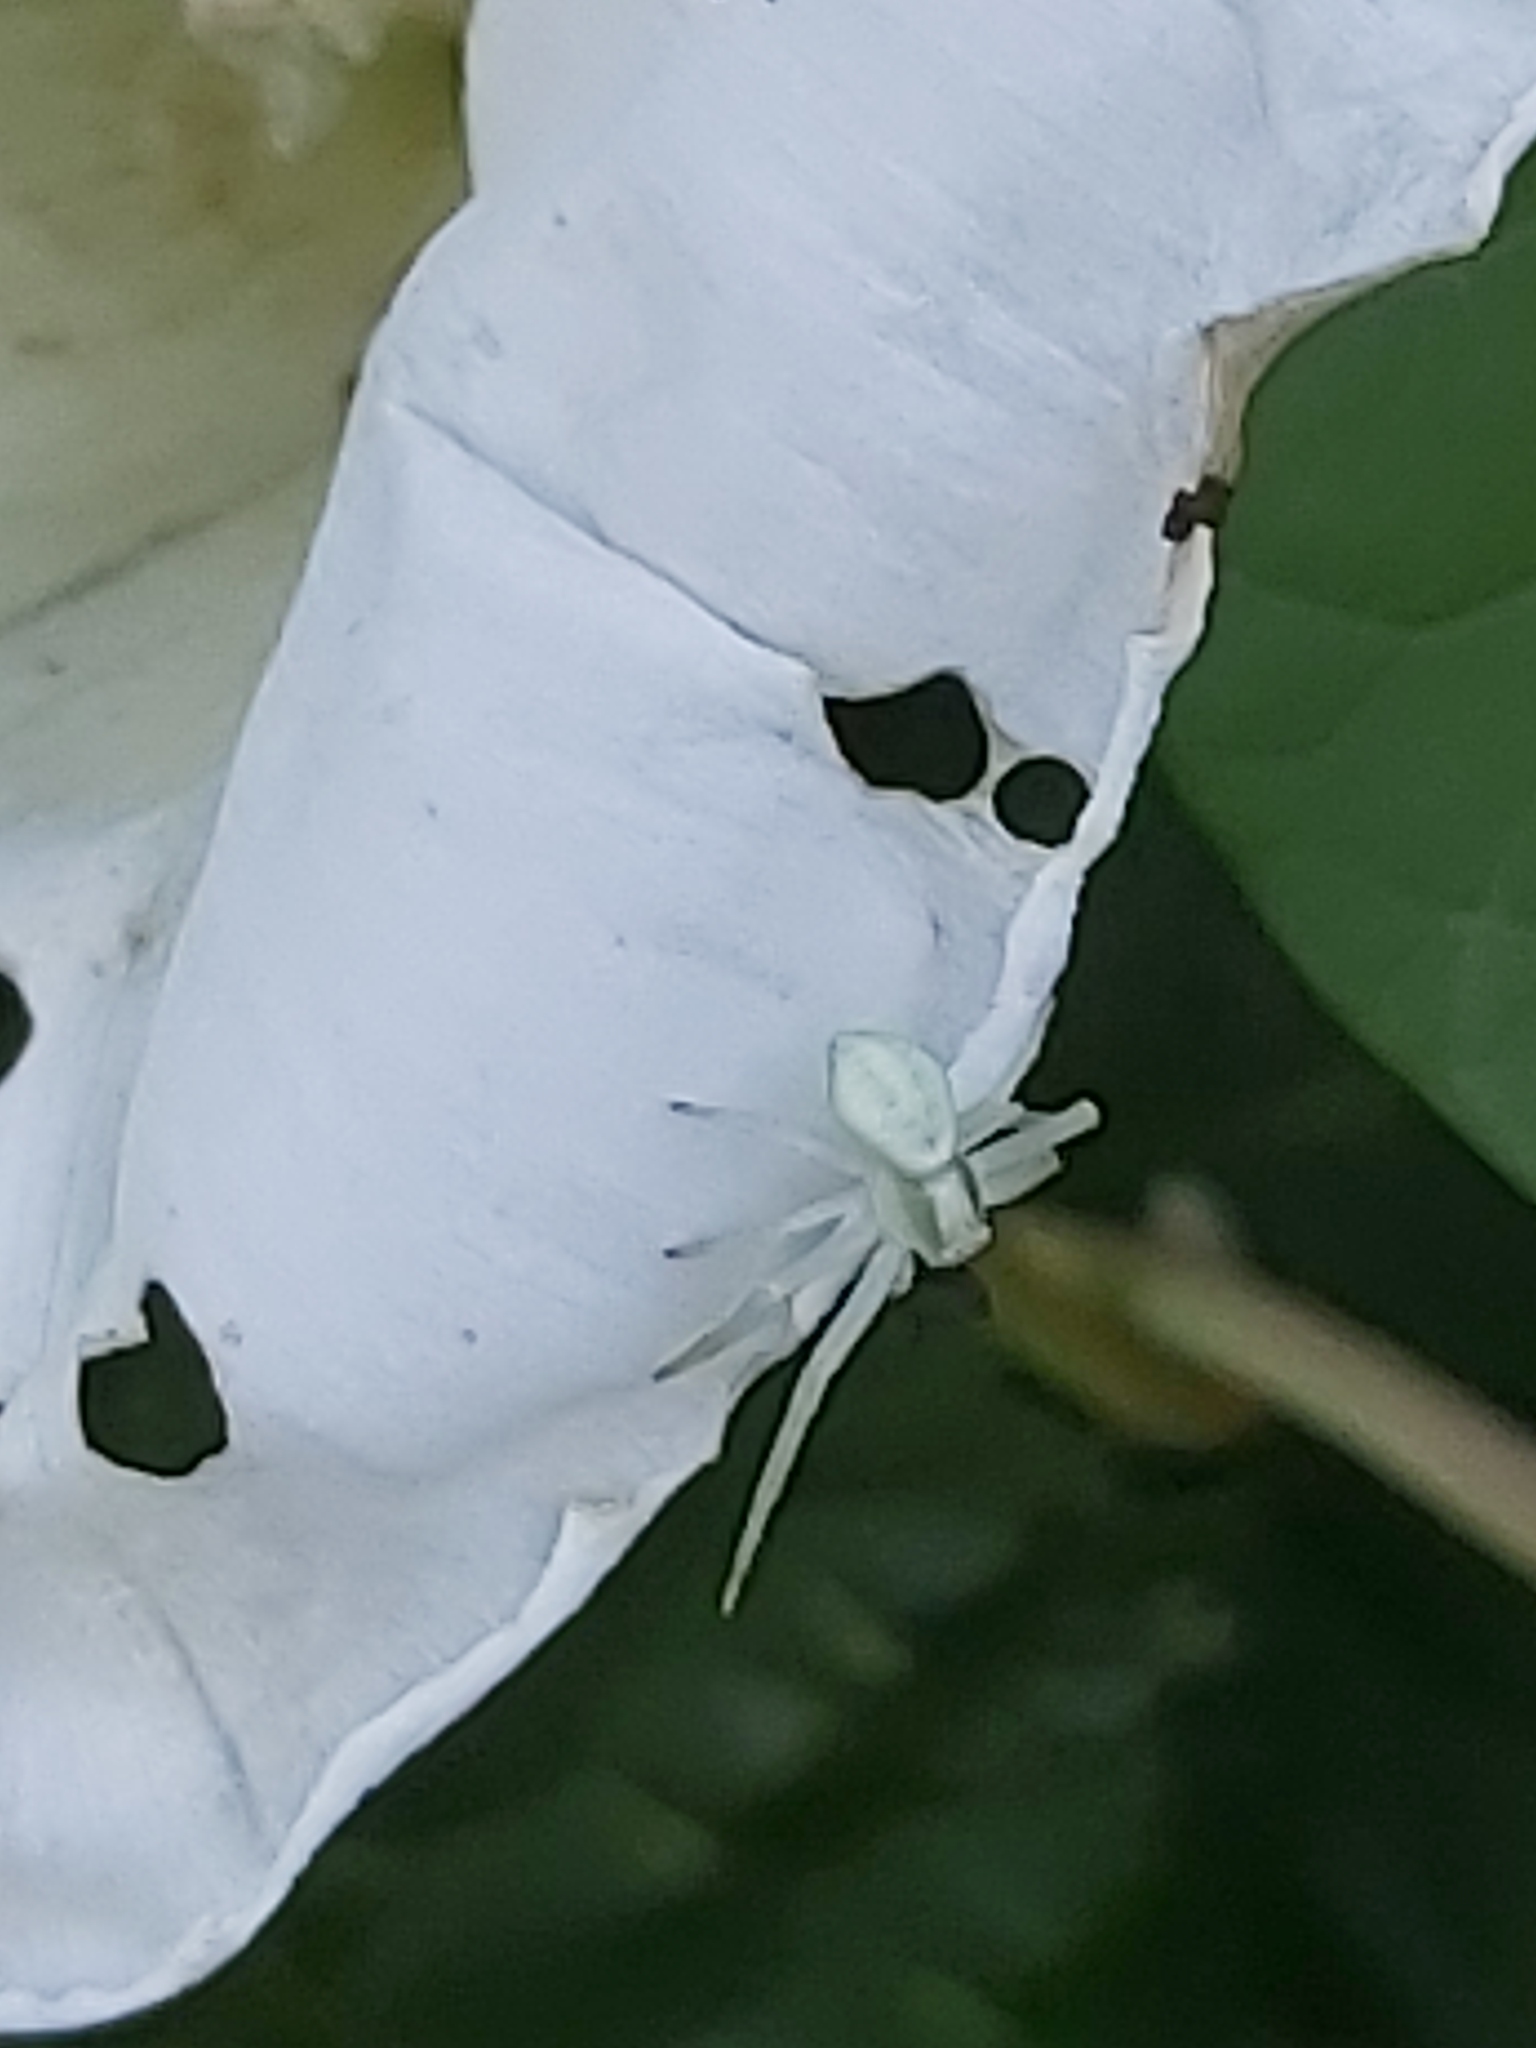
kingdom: Animalia
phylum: Arthropoda
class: Arachnida
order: Araneae
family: Thomisidae
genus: Misumena
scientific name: Misumena vatia
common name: Goldenrod crab spider
